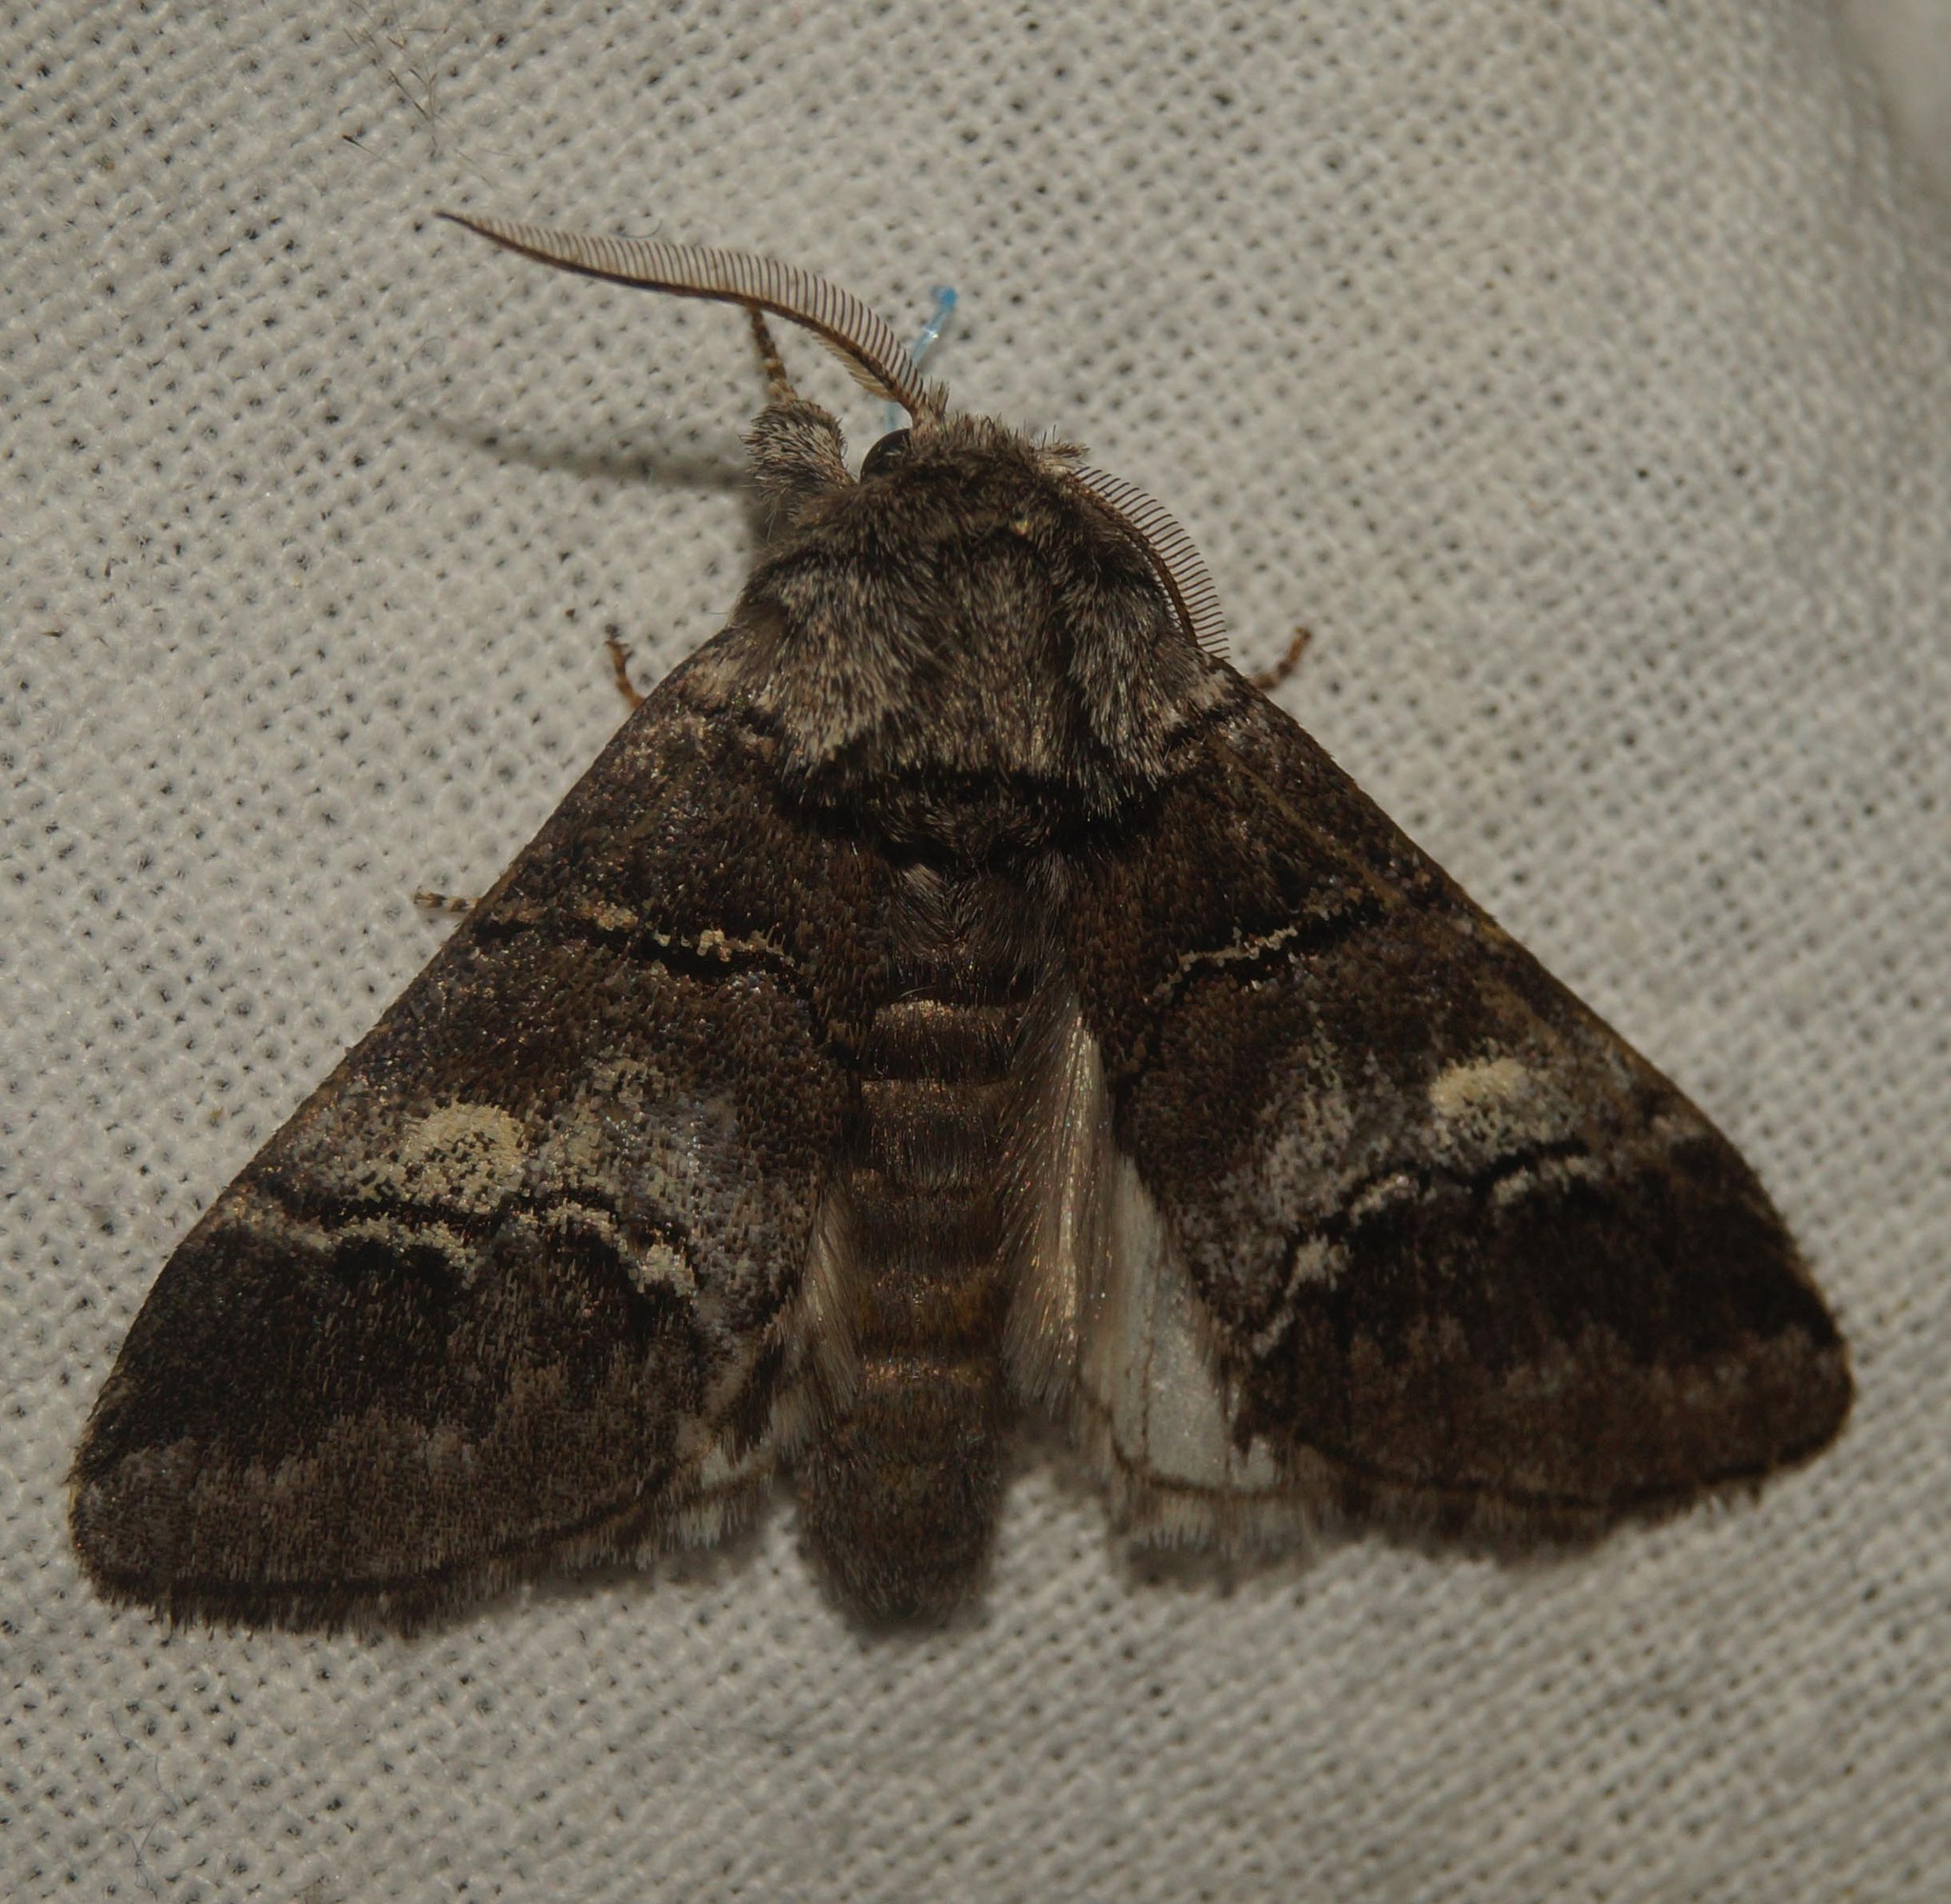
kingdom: Animalia
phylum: Arthropoda
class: Insecta
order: Lepidoptera
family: Notodontidae
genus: Drymonia
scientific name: Drymonia querna
